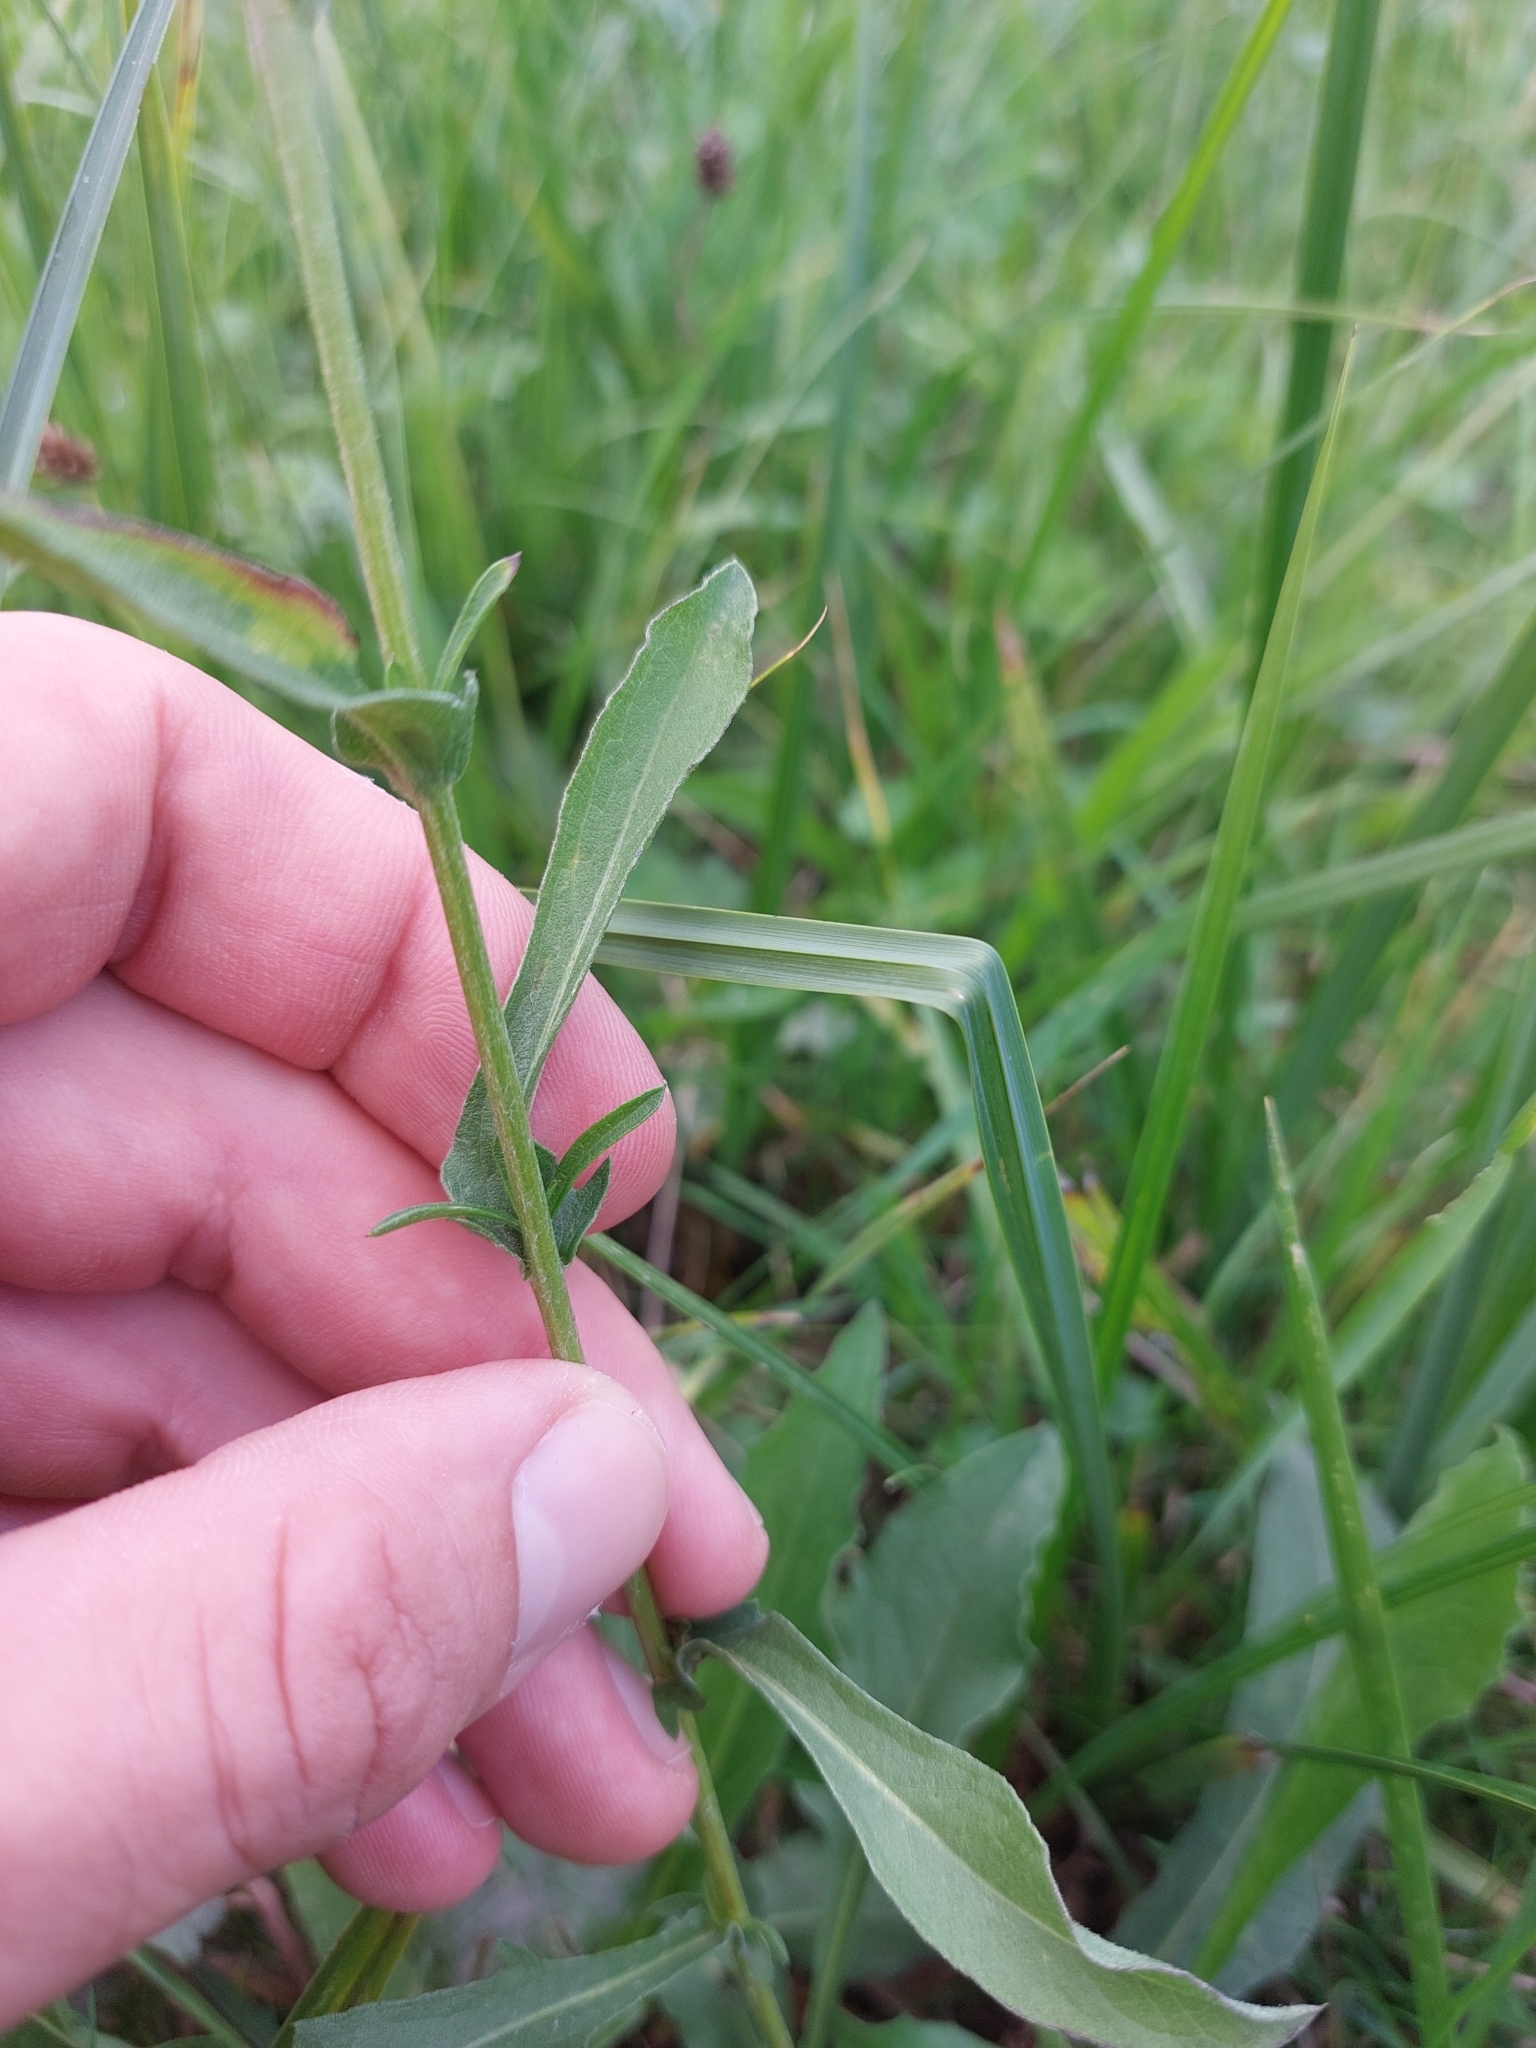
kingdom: Plantae
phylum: Tracheophyta
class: Magnoliopsida
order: Asterales
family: Asteraceae
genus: Centaurea
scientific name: Centaurea jacea
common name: Brown knapweed
